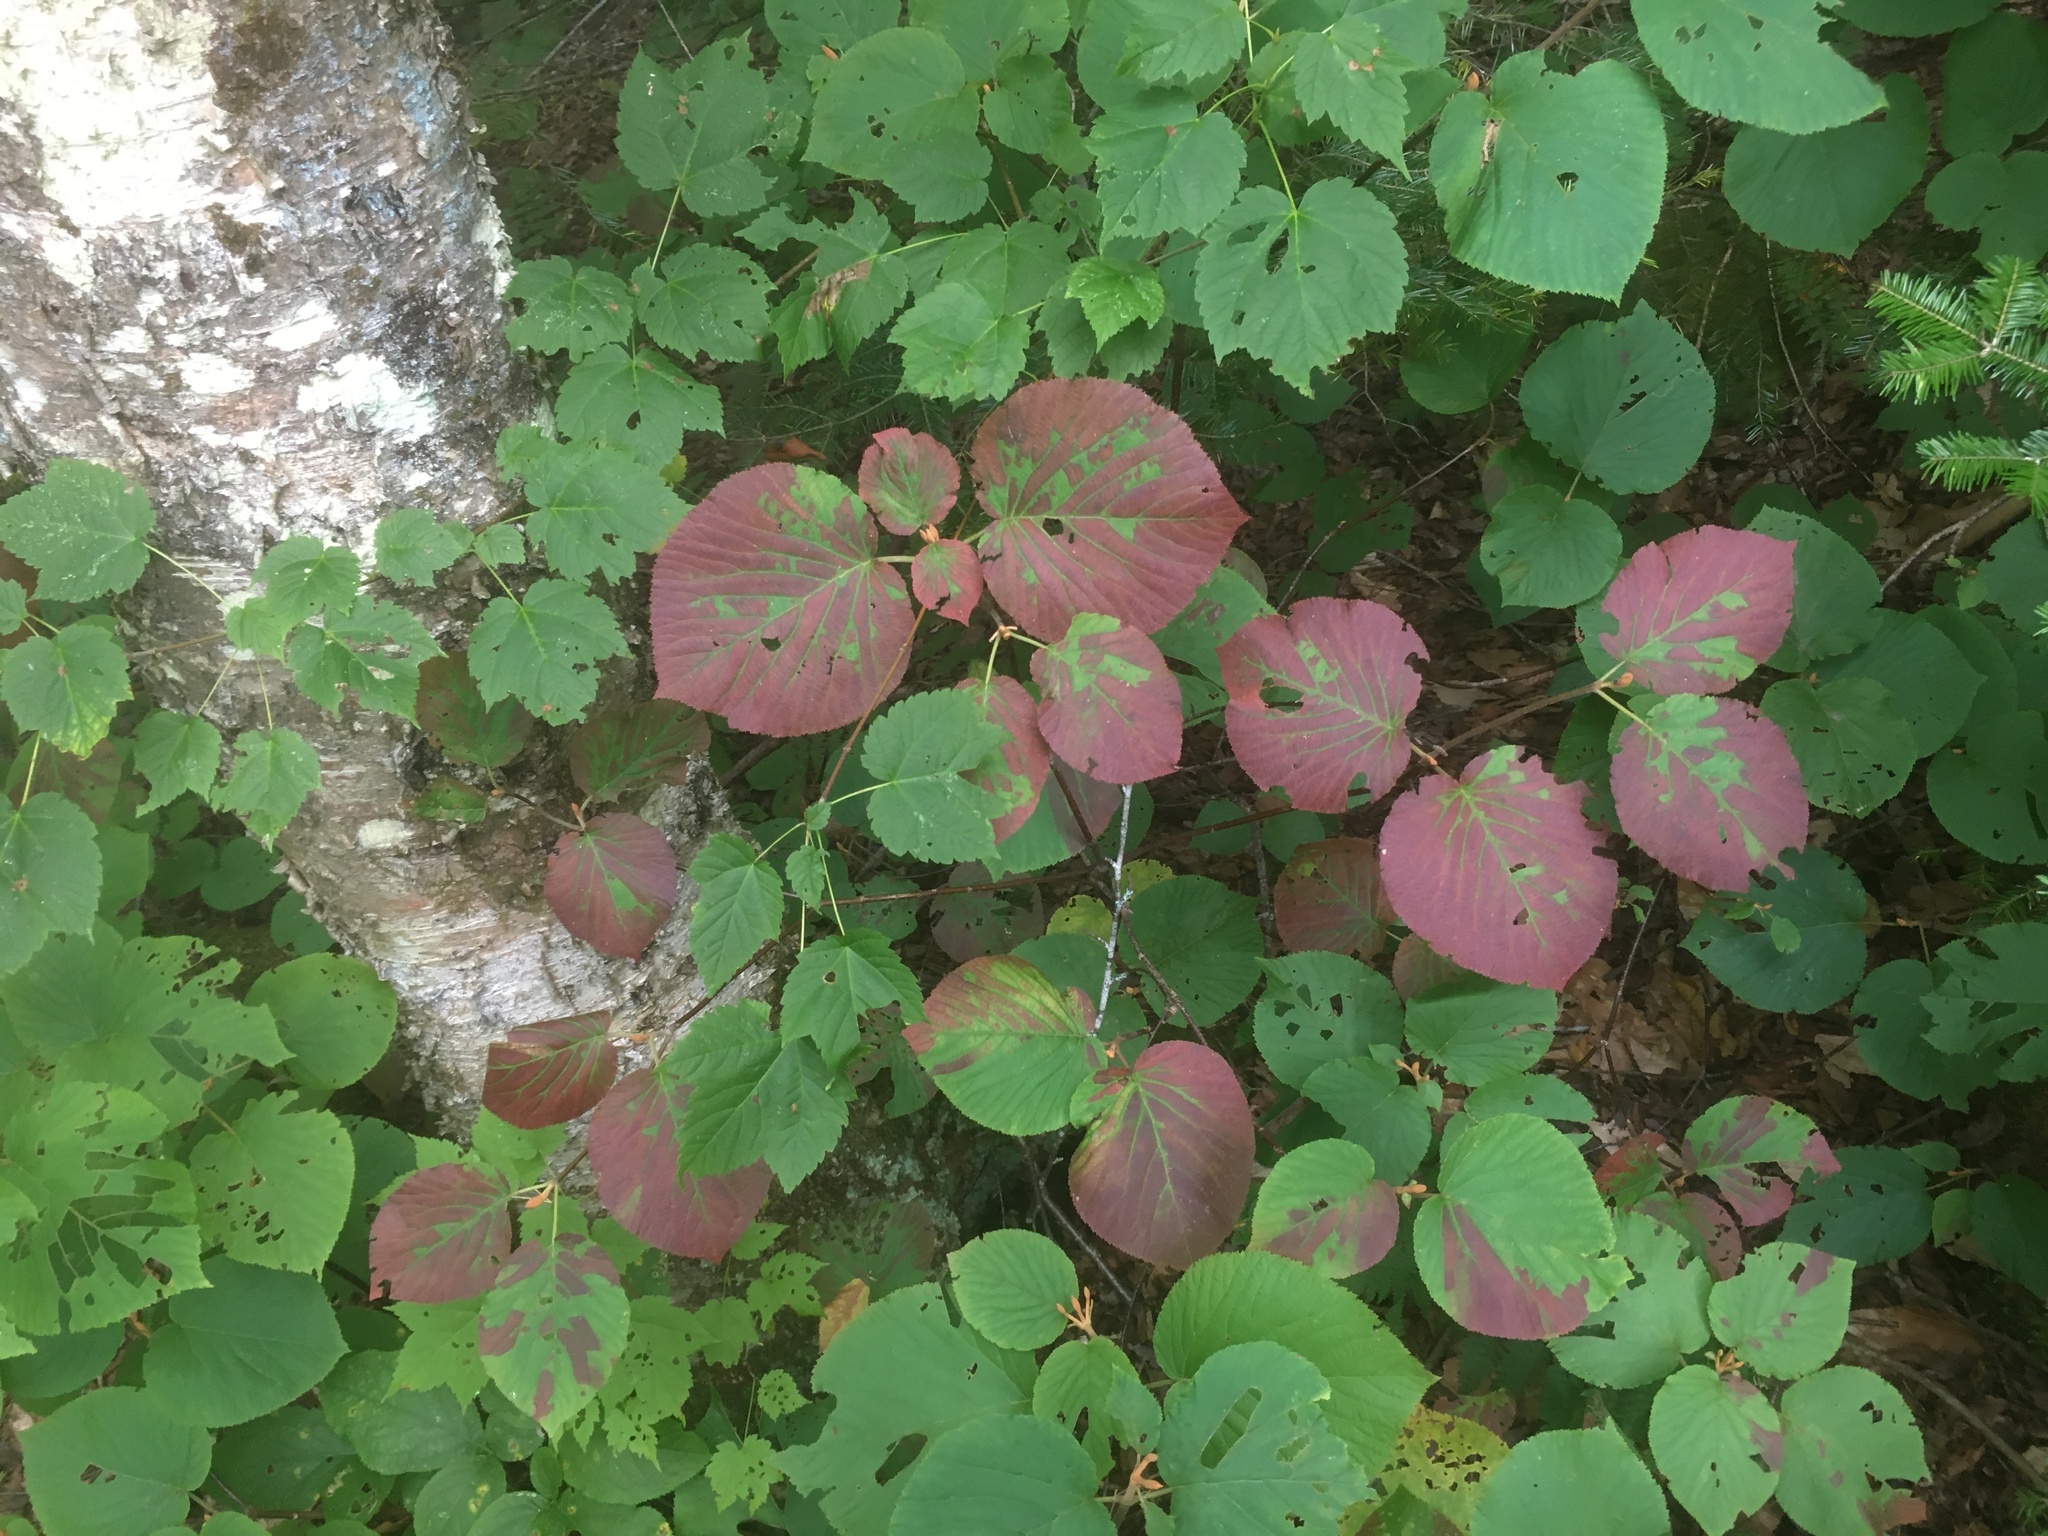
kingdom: Plantae
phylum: Tracheophyta
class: Magnoliopsida
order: Dipsacales
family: Viburnaceae
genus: Viburnum
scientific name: Viburnum lantanoides
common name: Hobblebush
